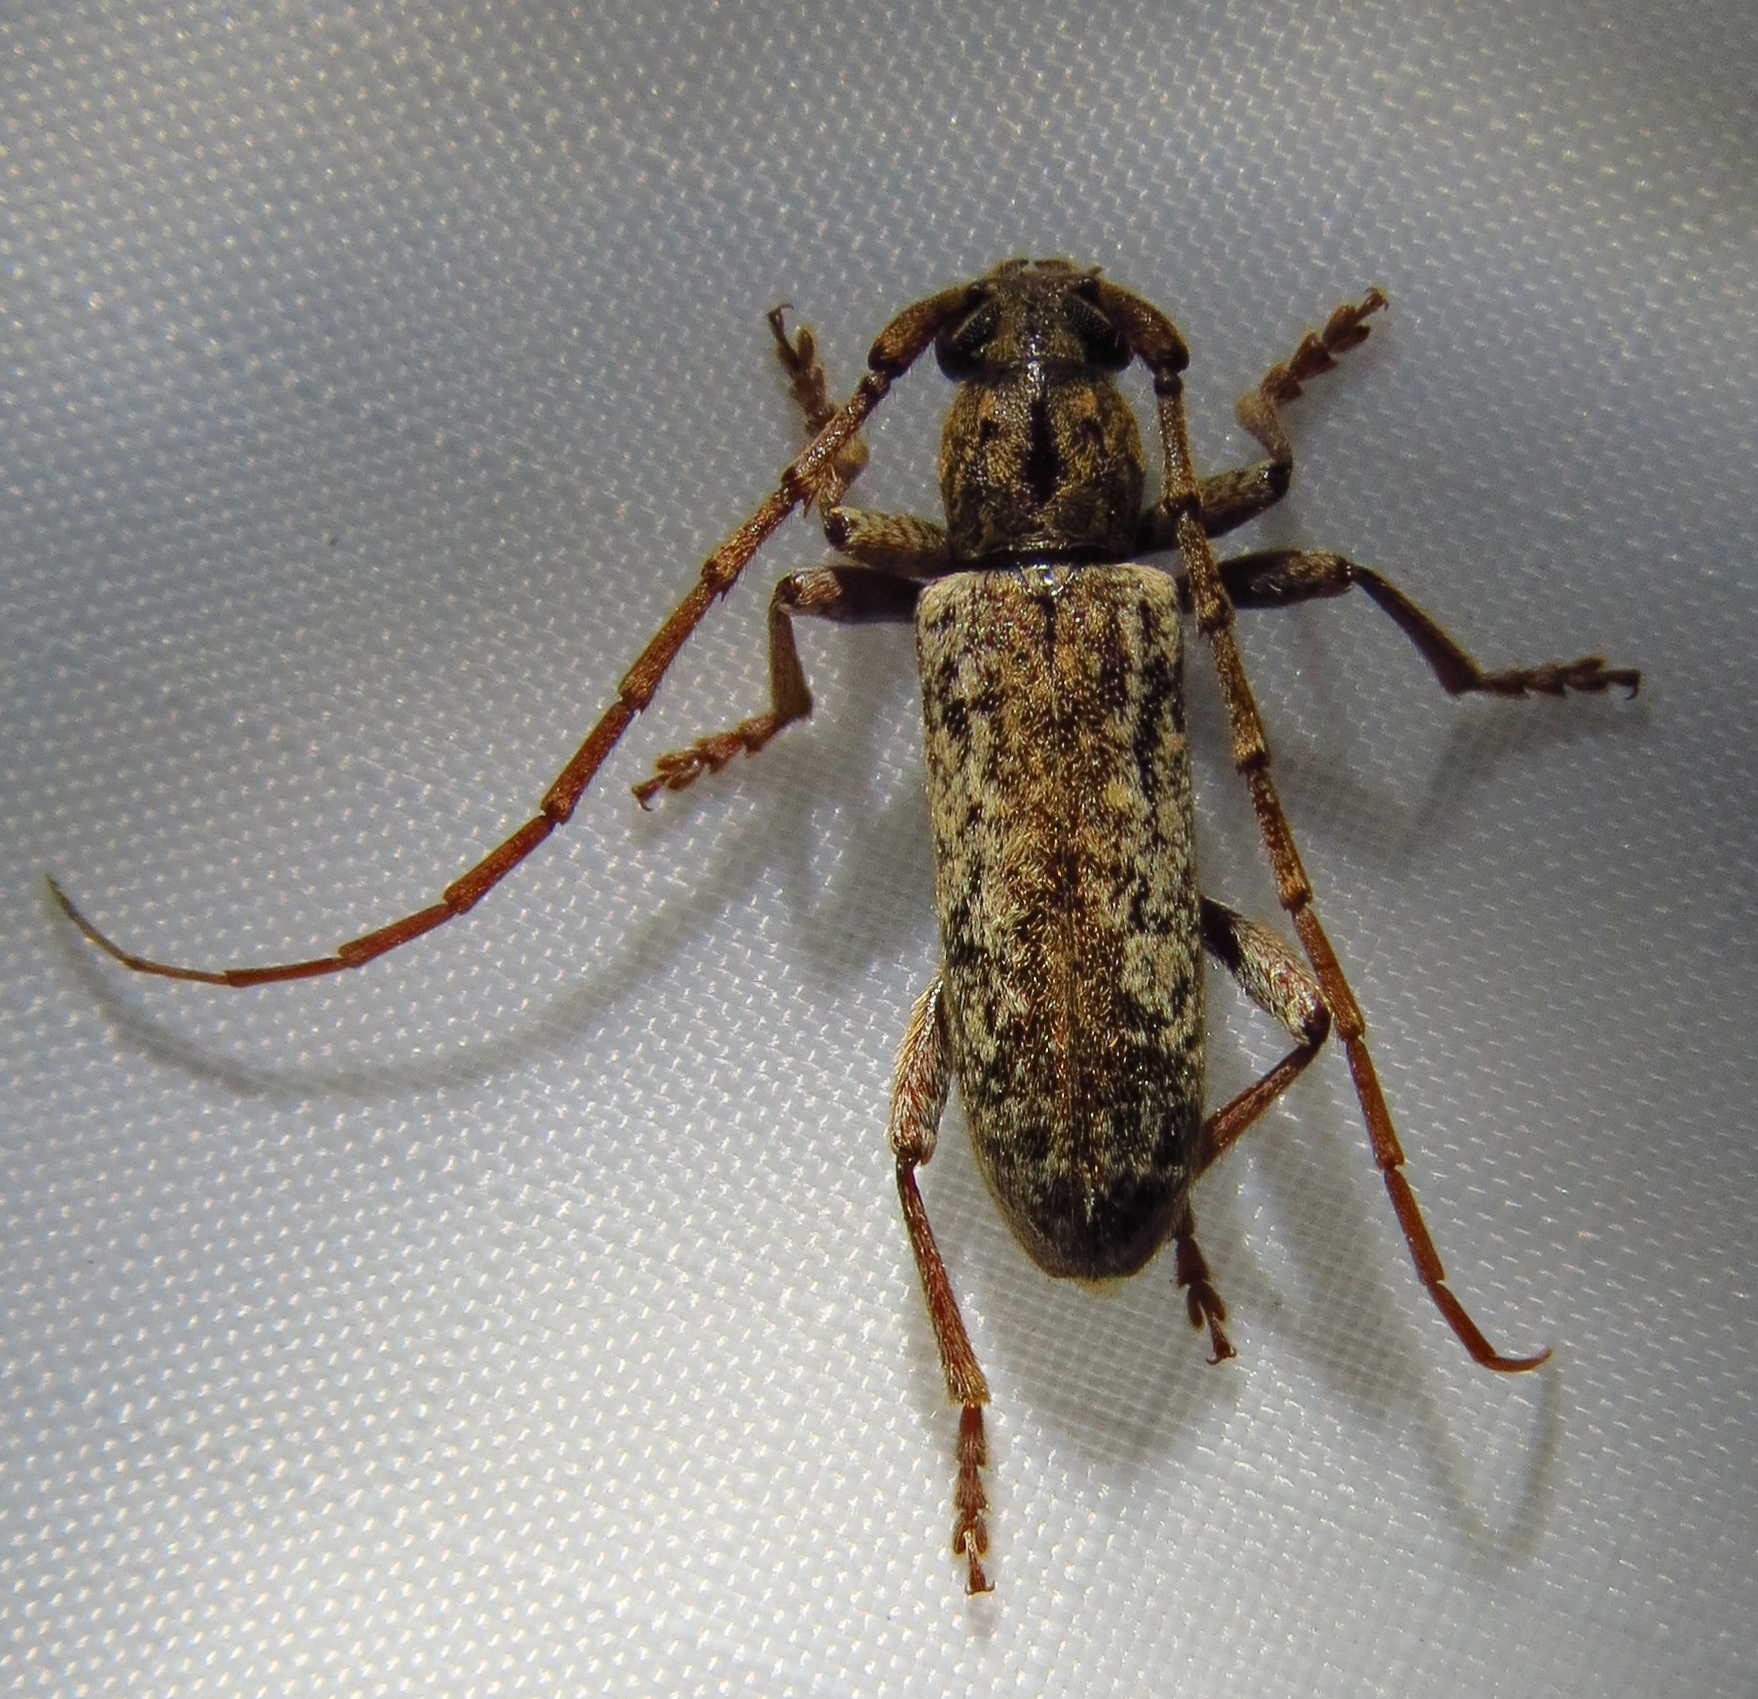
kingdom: Animalia
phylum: Arthropoda
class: Insecta
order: Coleoptera
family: Cerambycidae
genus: Anelaphus
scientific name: Anelaphus debilis
